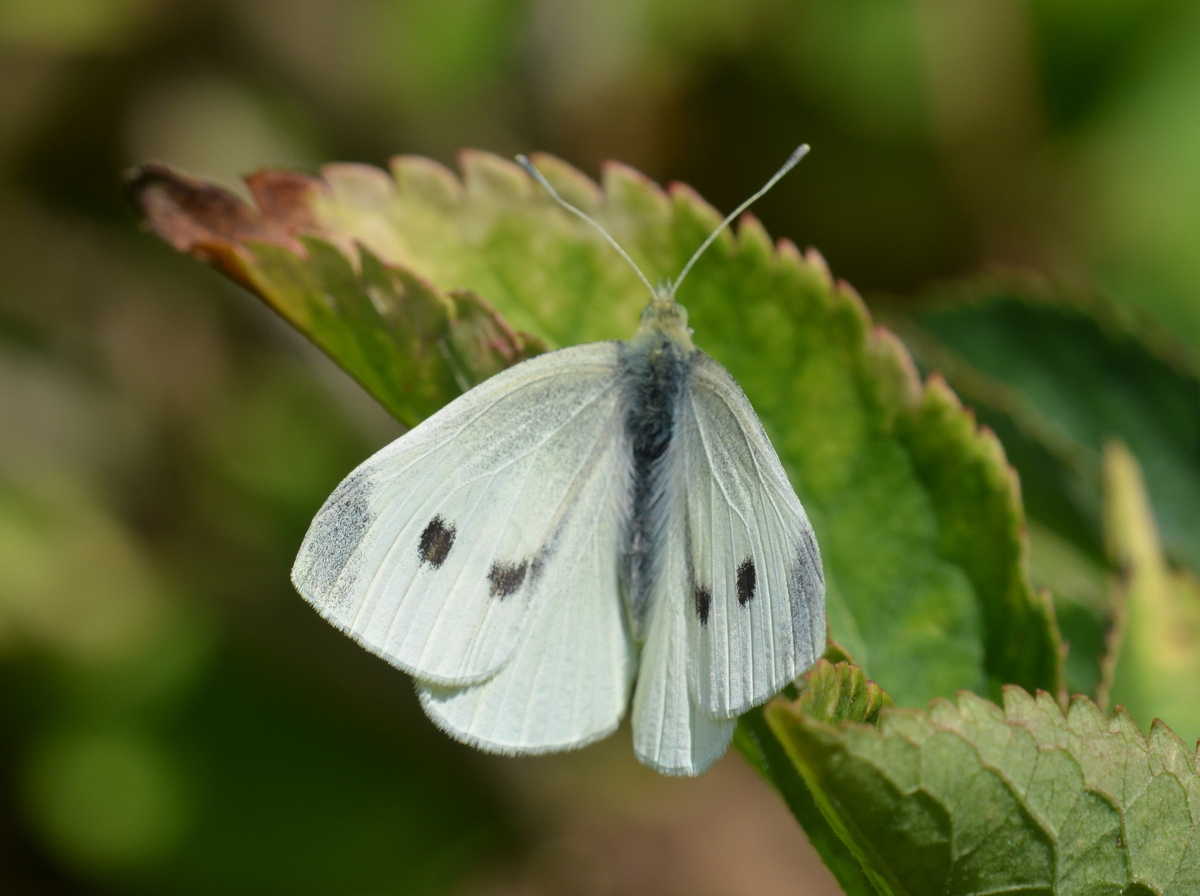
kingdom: Animalia
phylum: Arthropoda
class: Insecta
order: Lepidoptera
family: Pieridae
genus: Pieris
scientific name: Pieris rapae
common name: Small white
